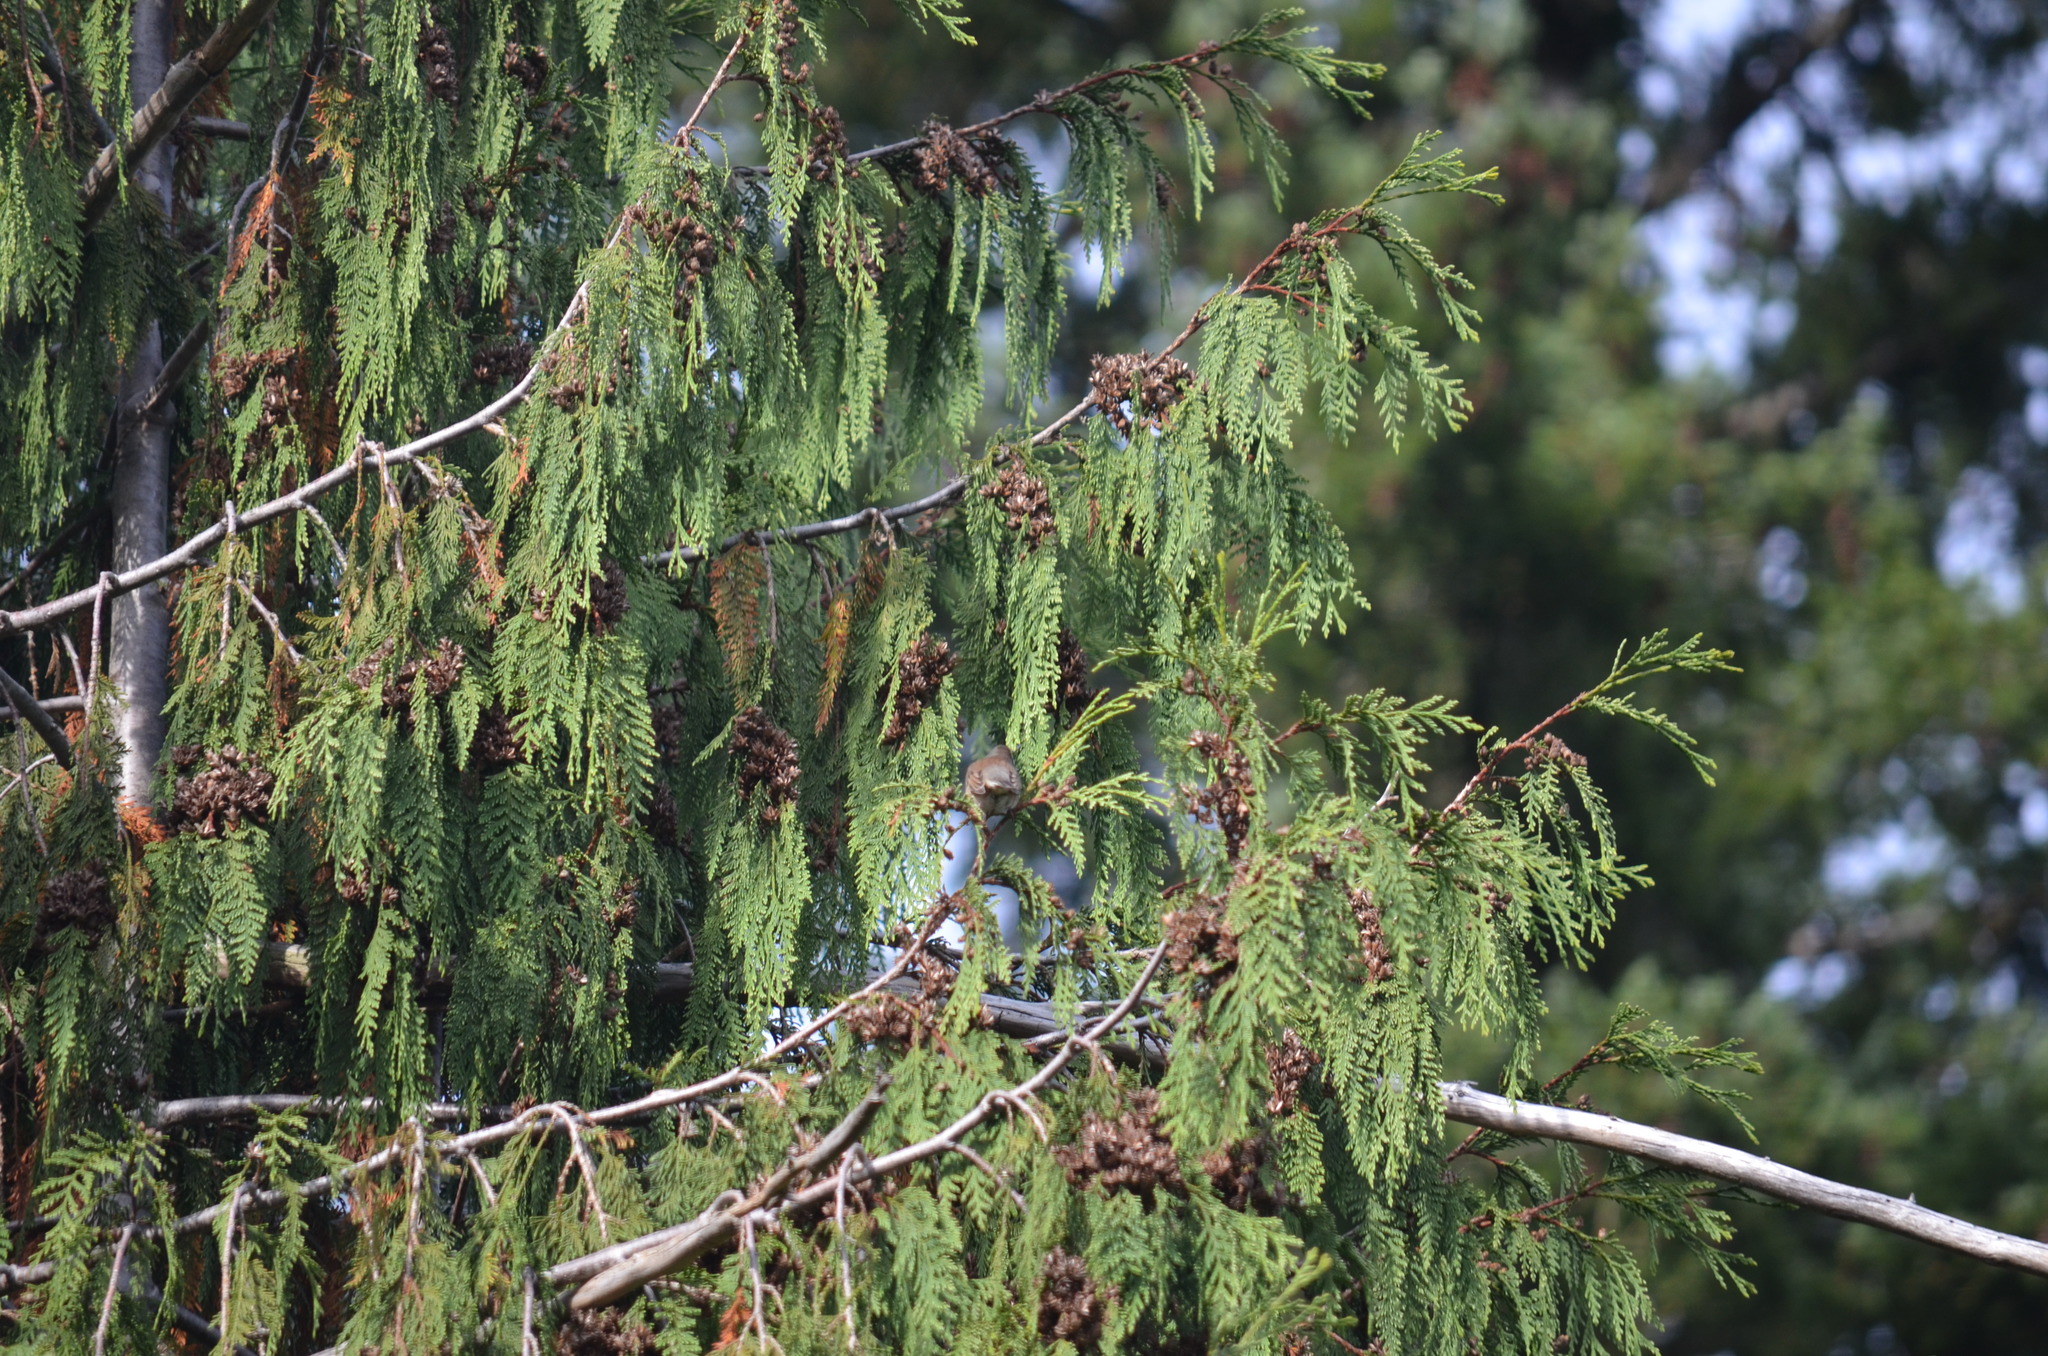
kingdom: Animalia
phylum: Chordata
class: Aves
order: Passeriformes
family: Passerellidae
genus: Junco
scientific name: Junco hyemalis
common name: Dark-eyed junco
